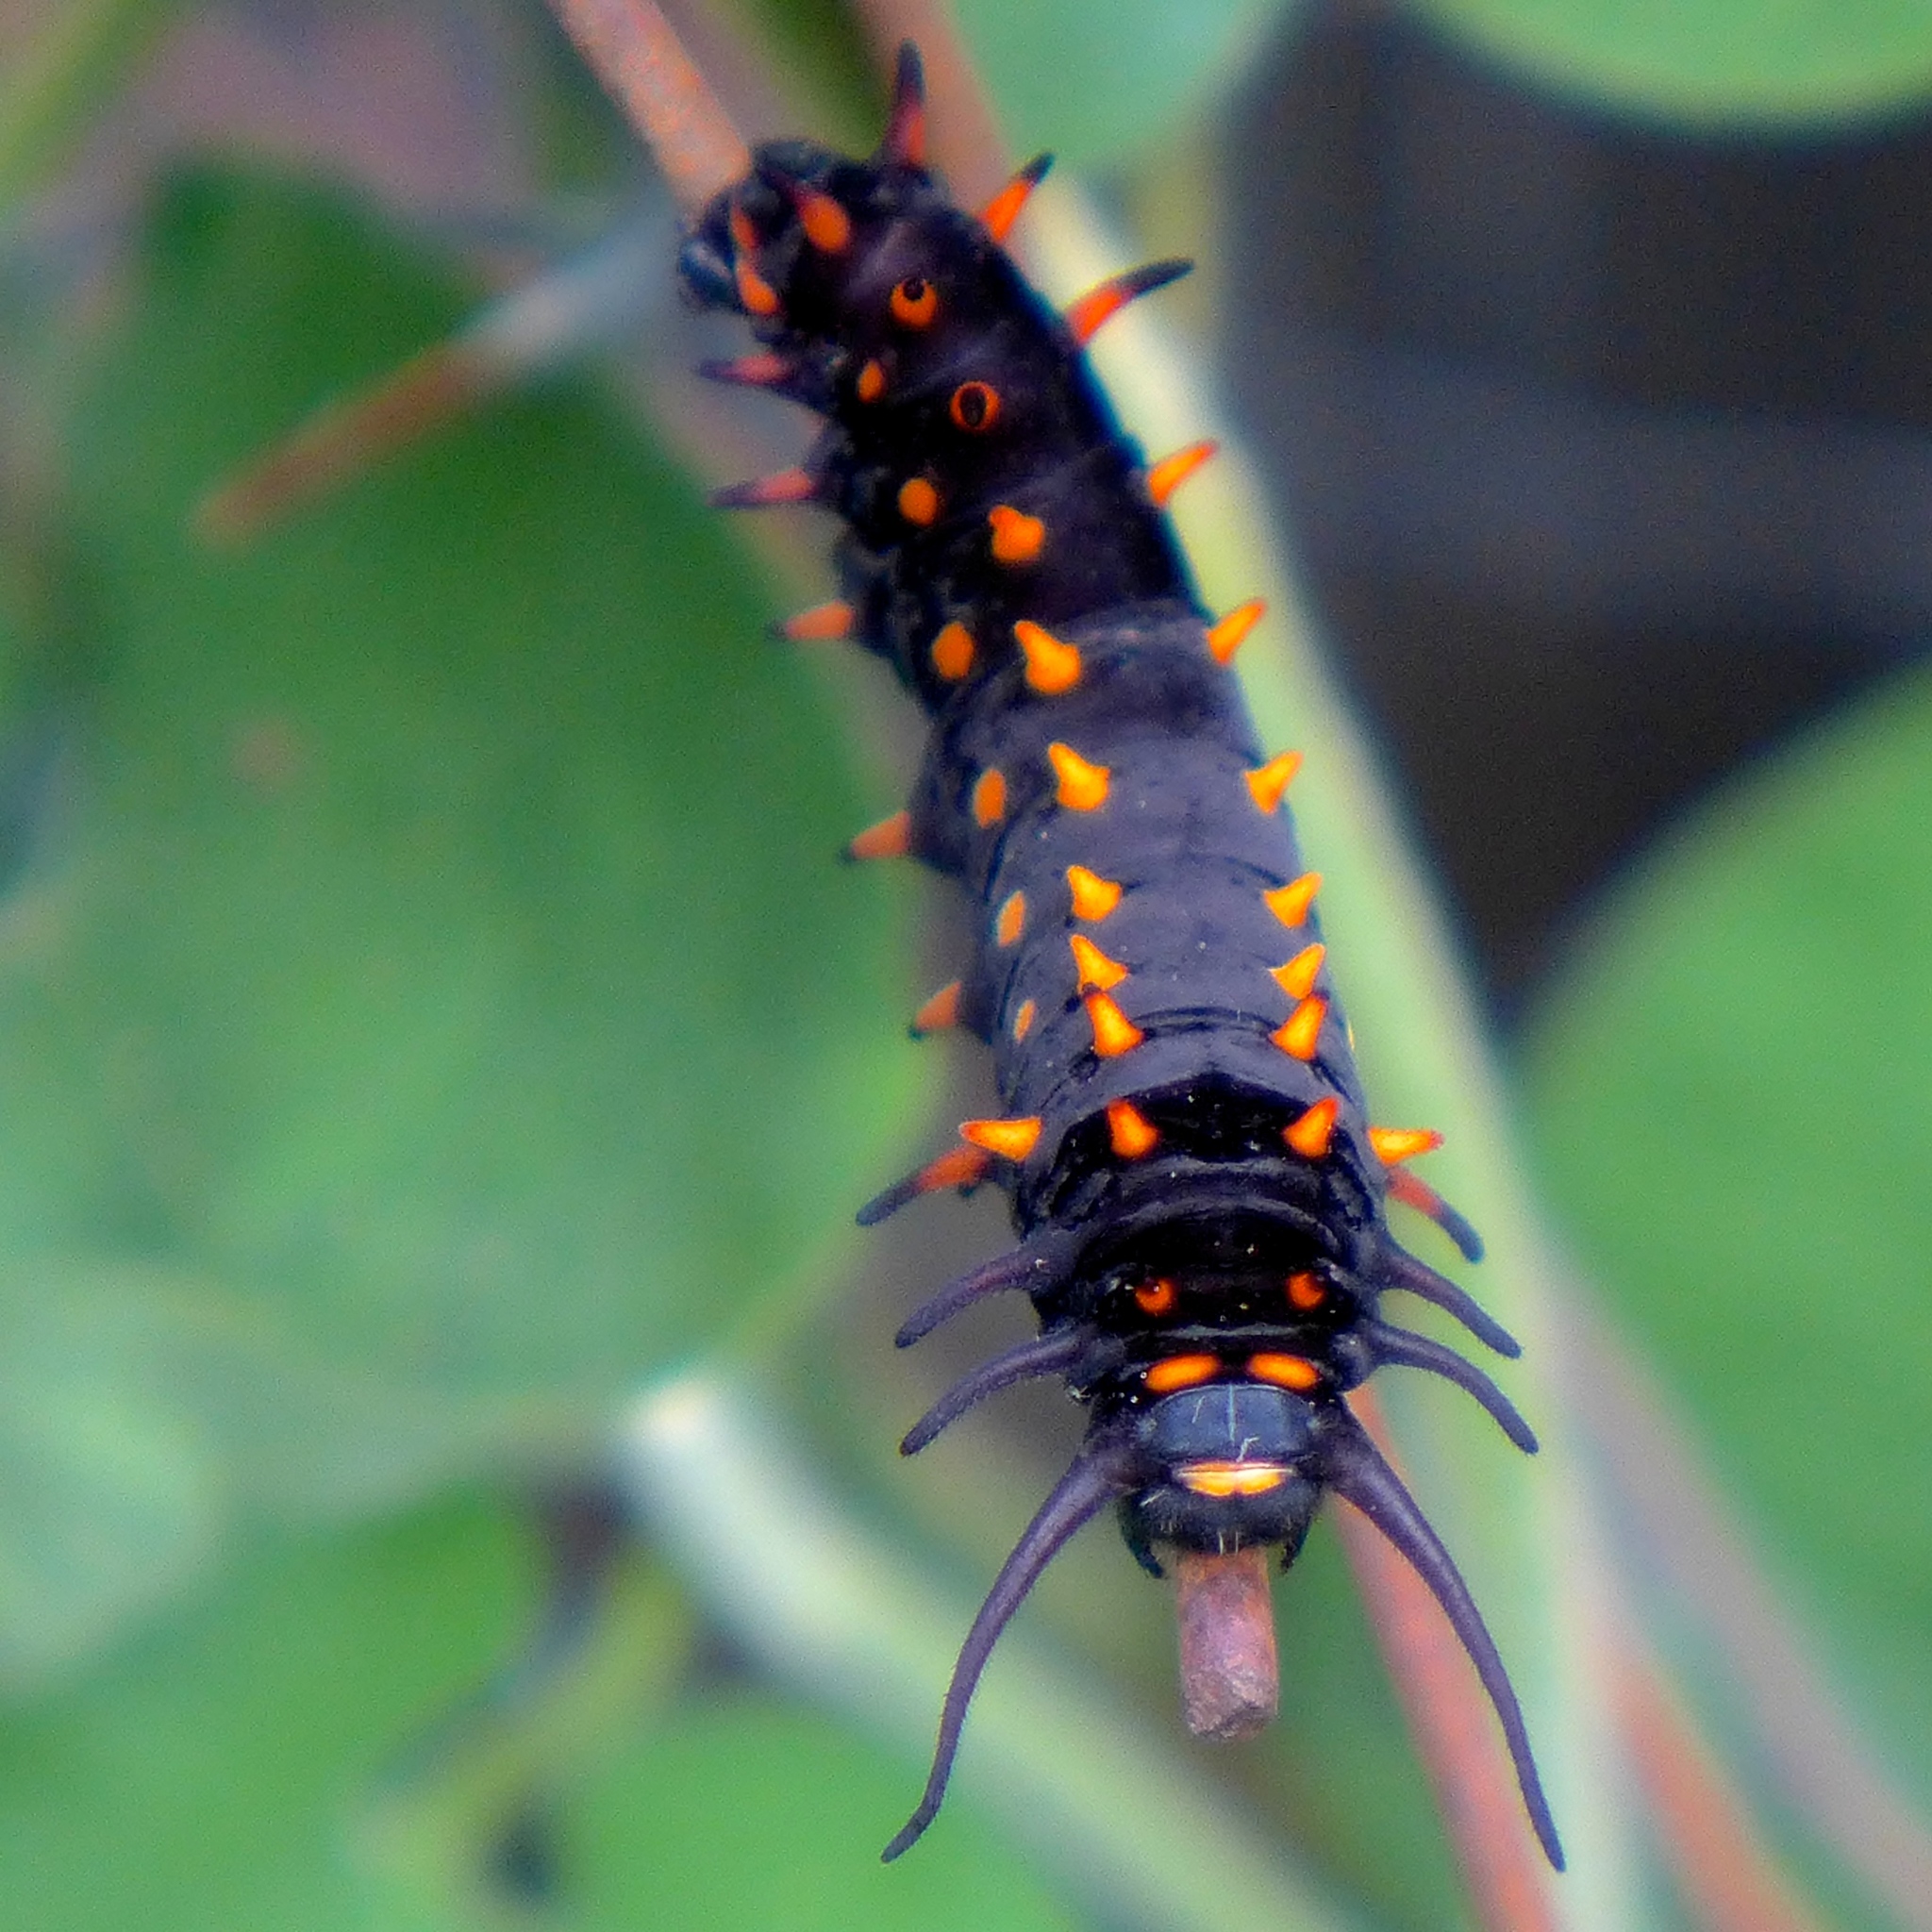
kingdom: Animalia
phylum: Arthropoda
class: Insecta
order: Lepidoptera
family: Papilionidae
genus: Battus
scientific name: Battus philenor
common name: Pipevine swallowtail
